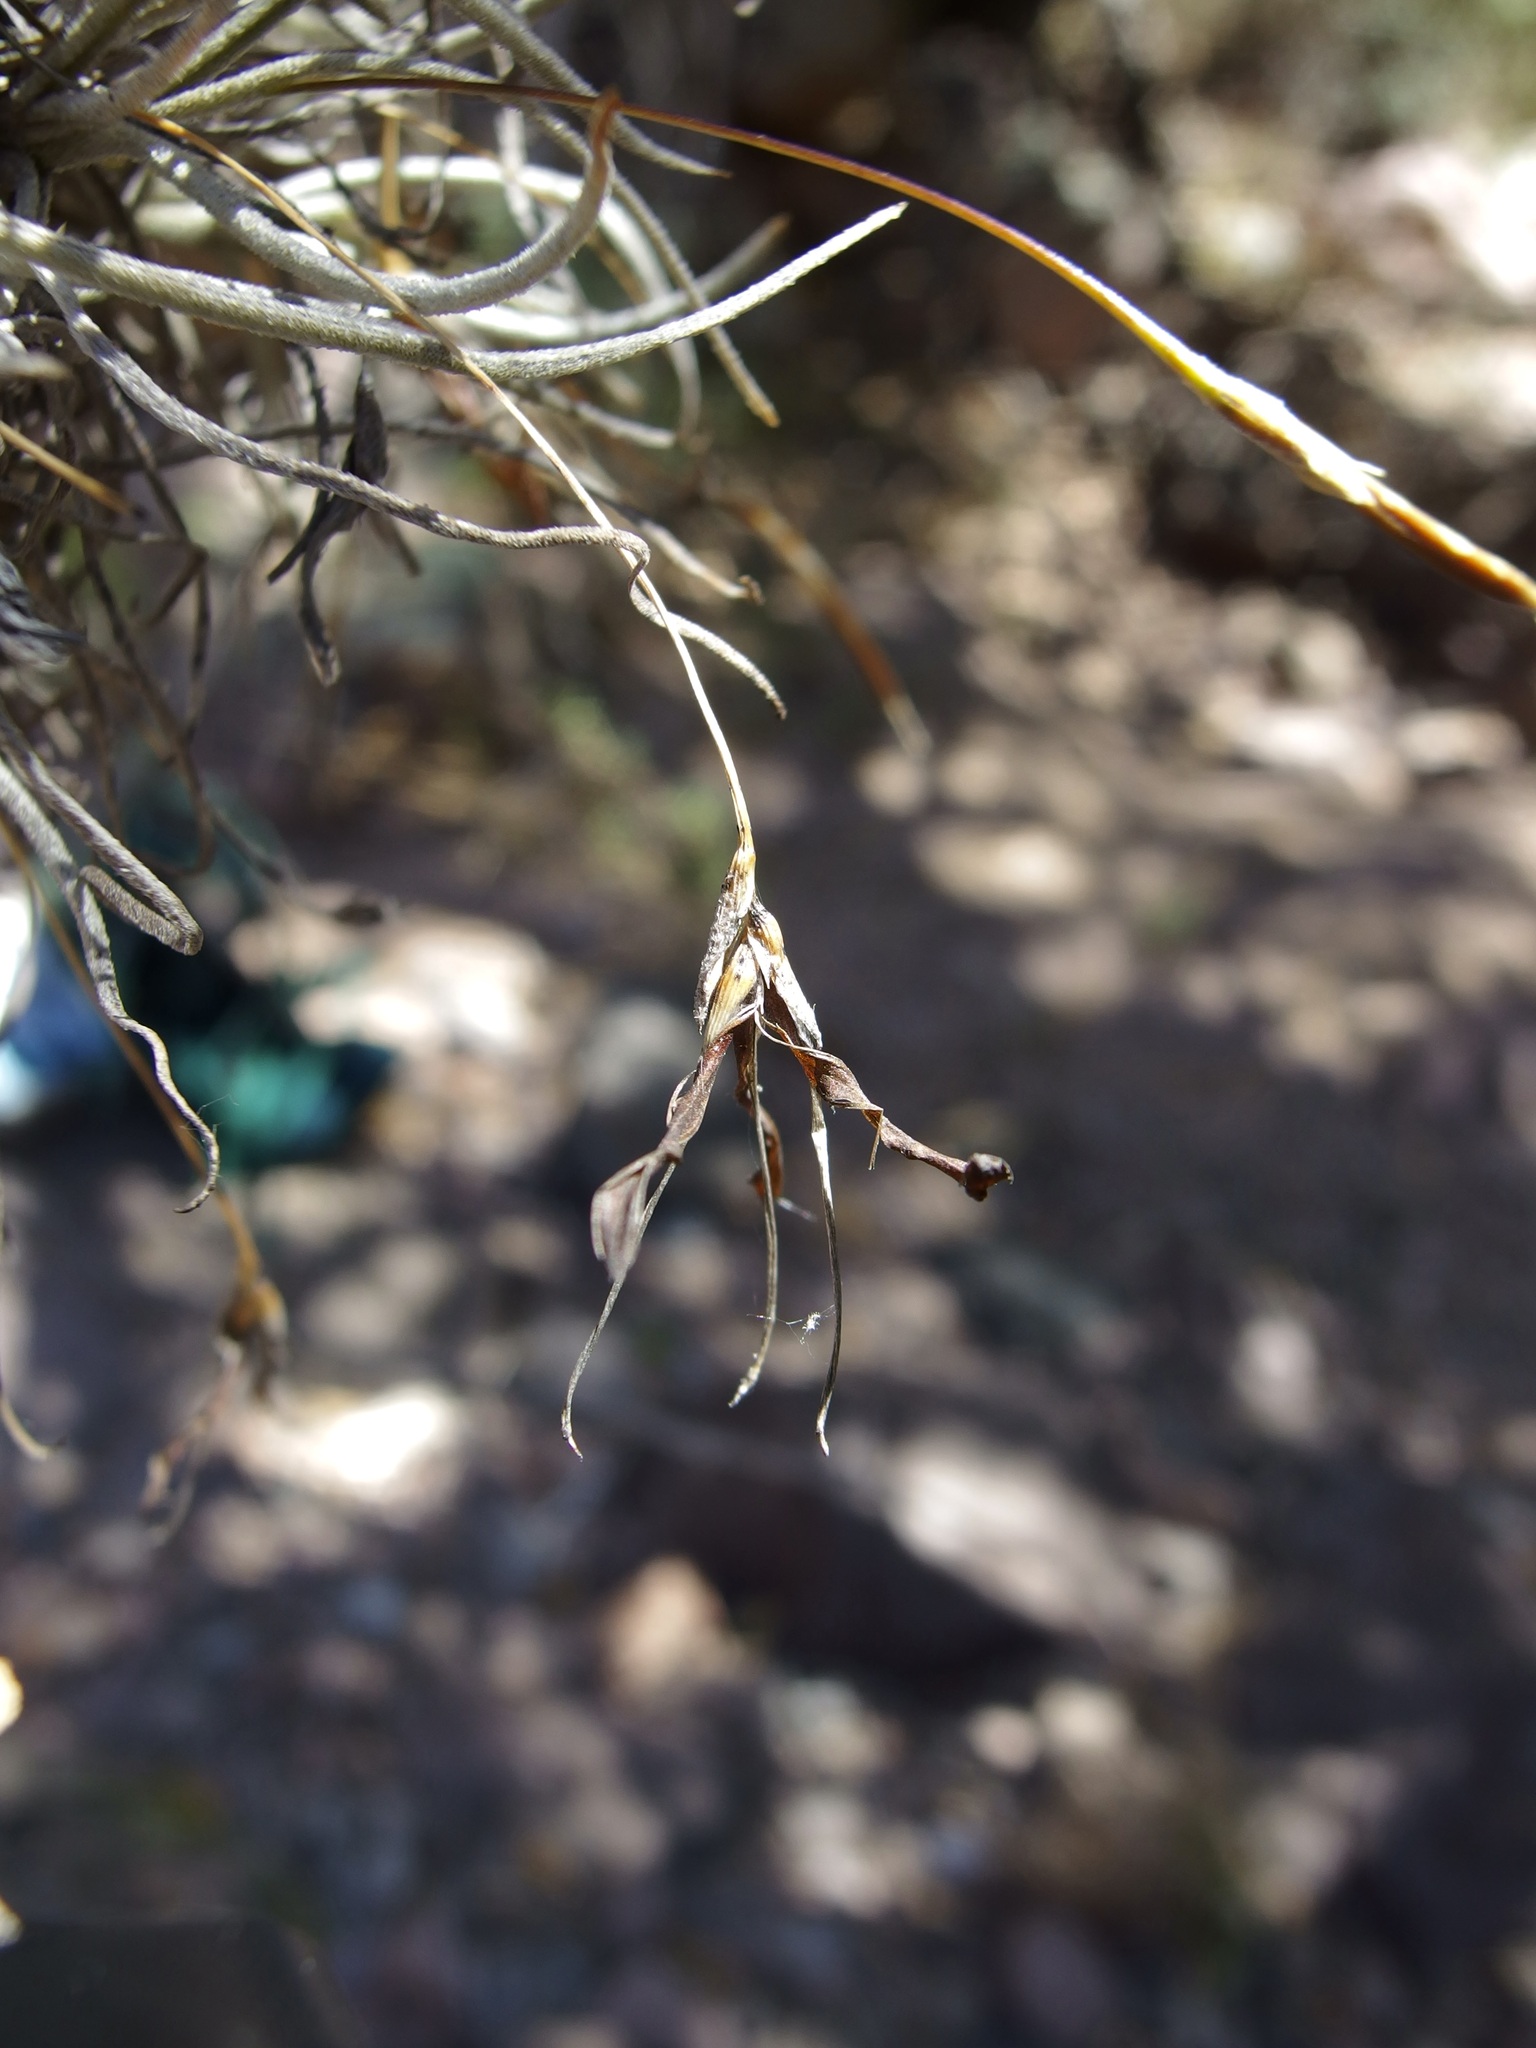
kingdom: Plantae
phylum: Tracheophyta
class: Liliopsida
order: Poales
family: Bromeliaceae
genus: Tillandsia
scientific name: Tillandsia recurvata
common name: Small ballmoss
